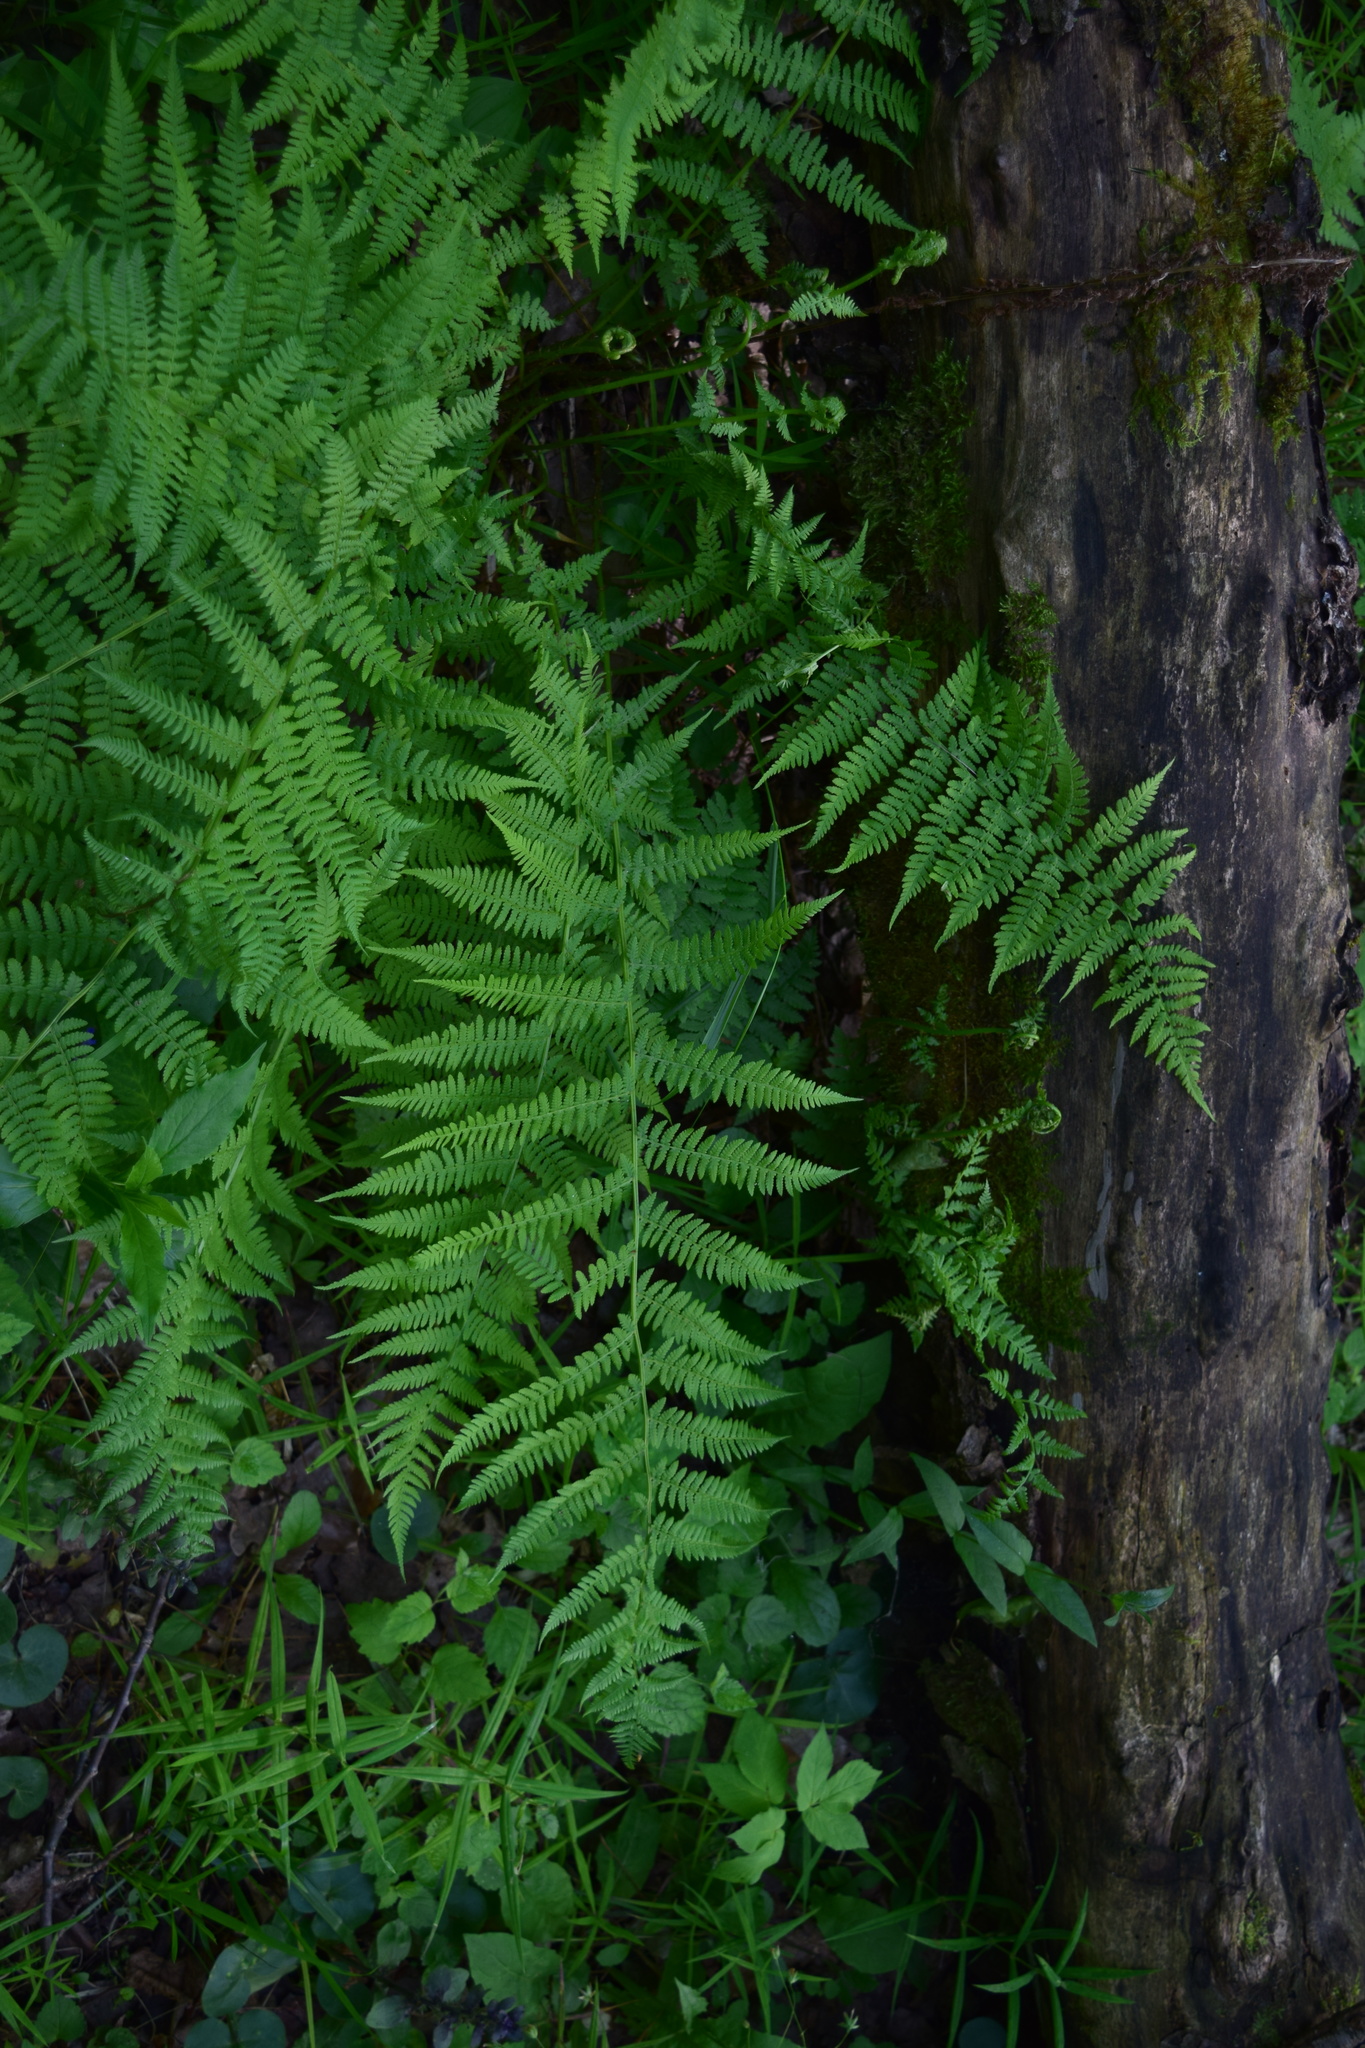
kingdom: Plantae
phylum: Tracheophyta
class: Polypodiopsida
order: Polypodiales
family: Athyriaceae
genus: Athyrium
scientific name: Athyrium filix-femina
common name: Lady fern
